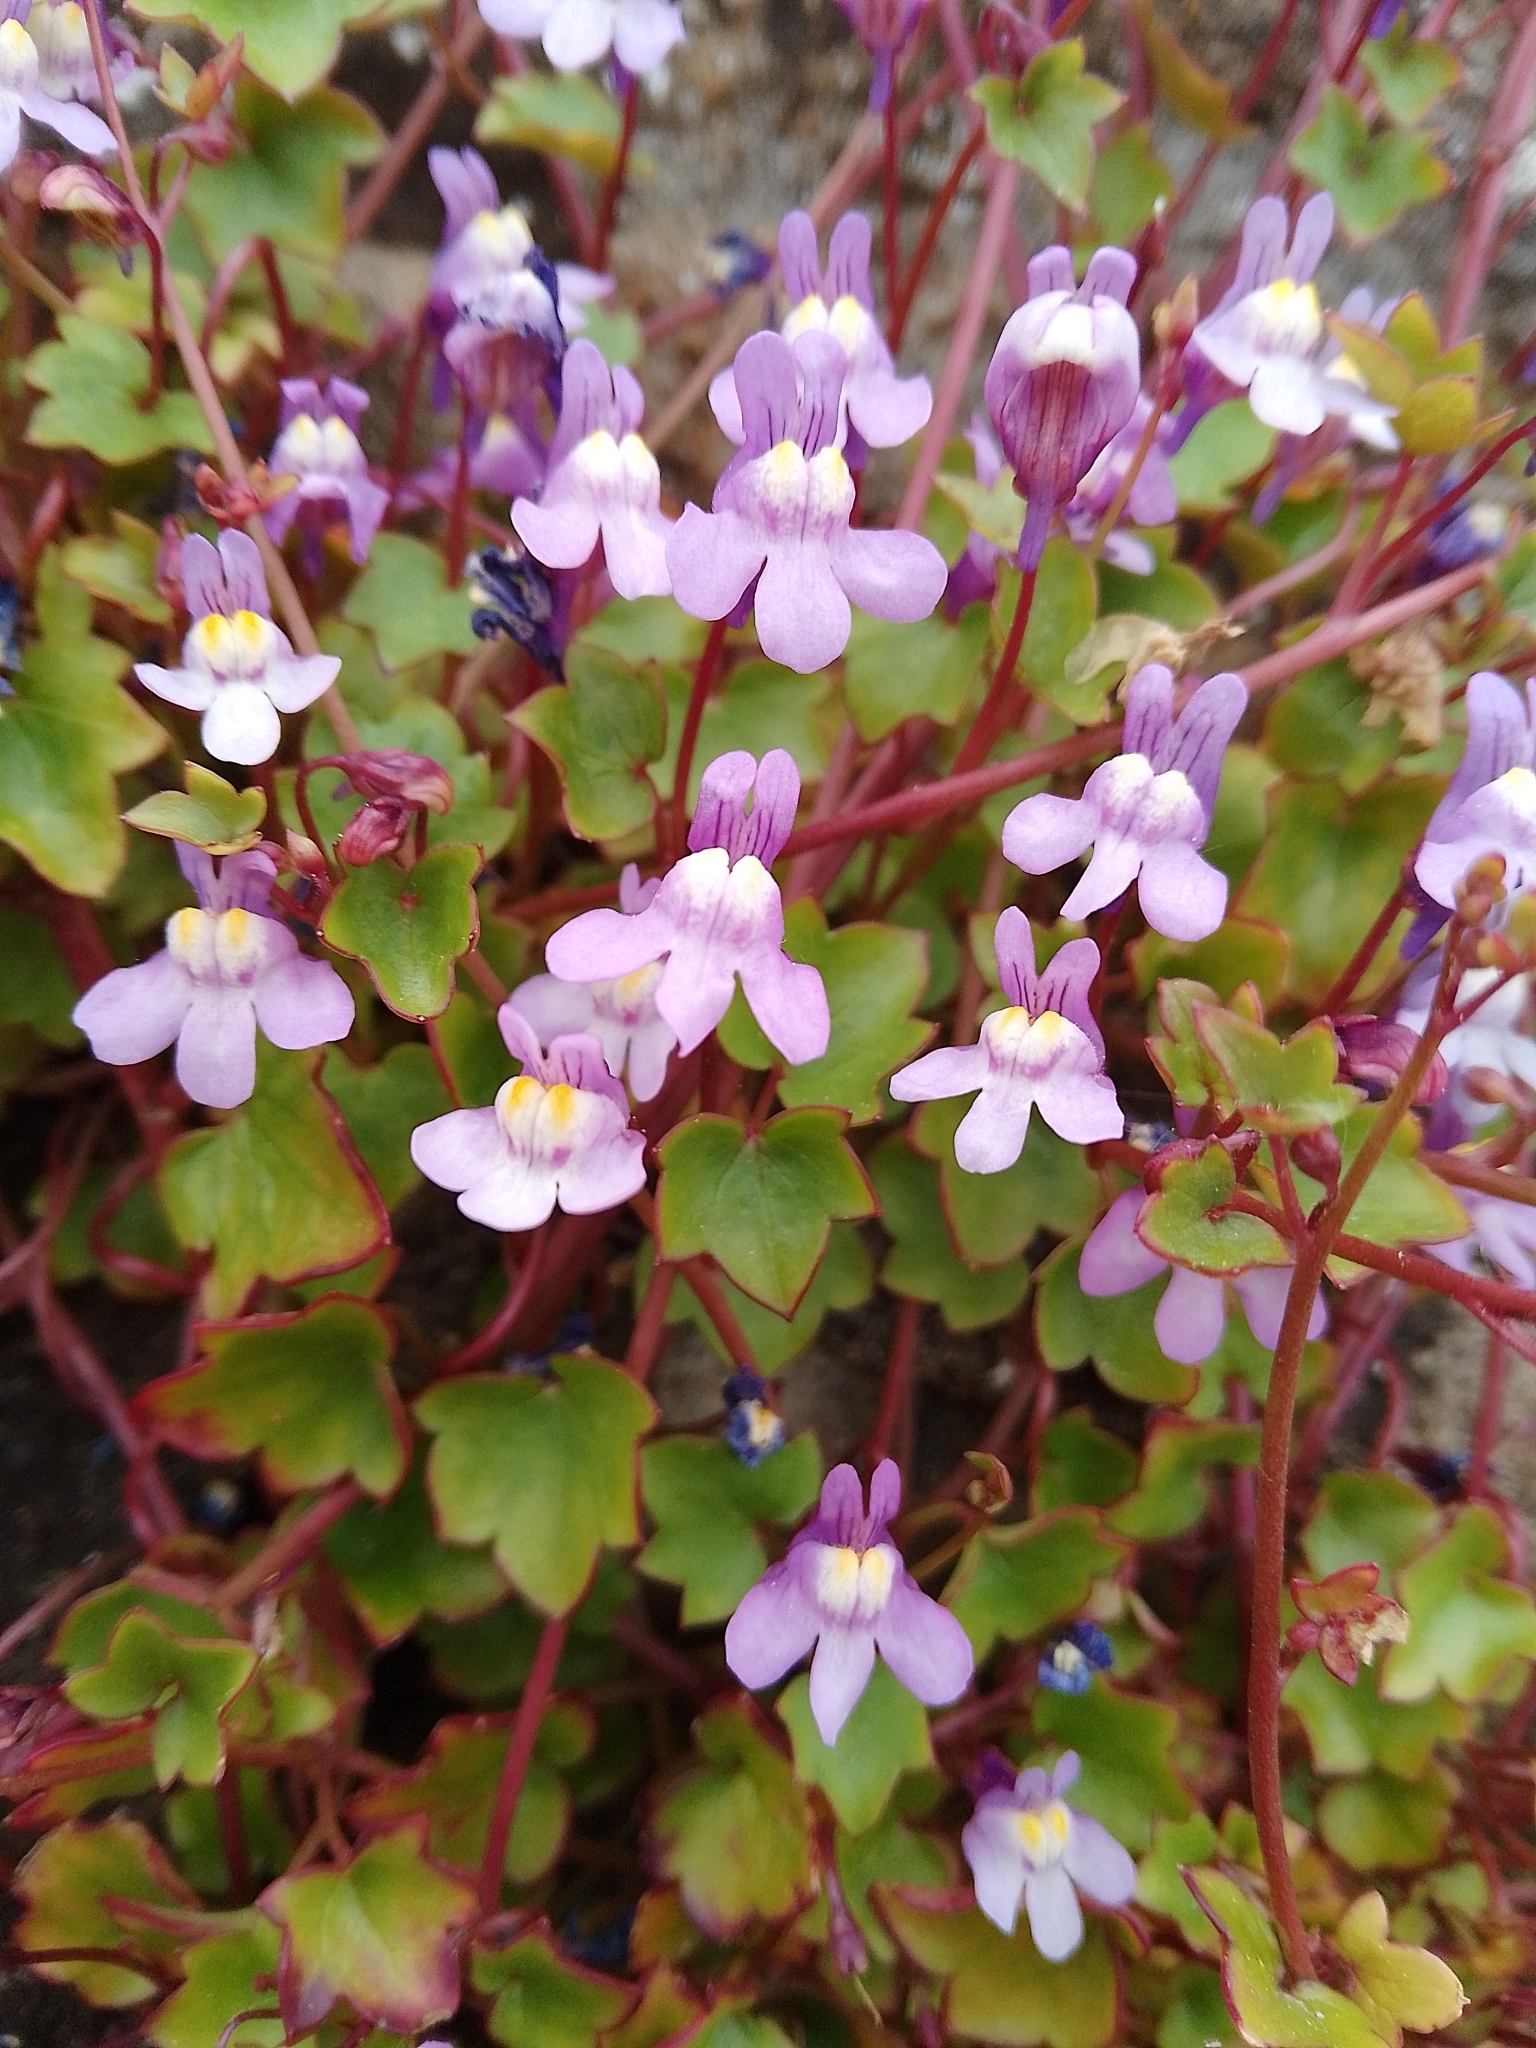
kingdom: Plantae
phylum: Tracheophyta
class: Magnoliopsida
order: Lamiales
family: Plantaginaceae
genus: Cymbalaria
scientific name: Cymbalaria muralis
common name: Ivy-leaved toadflax
